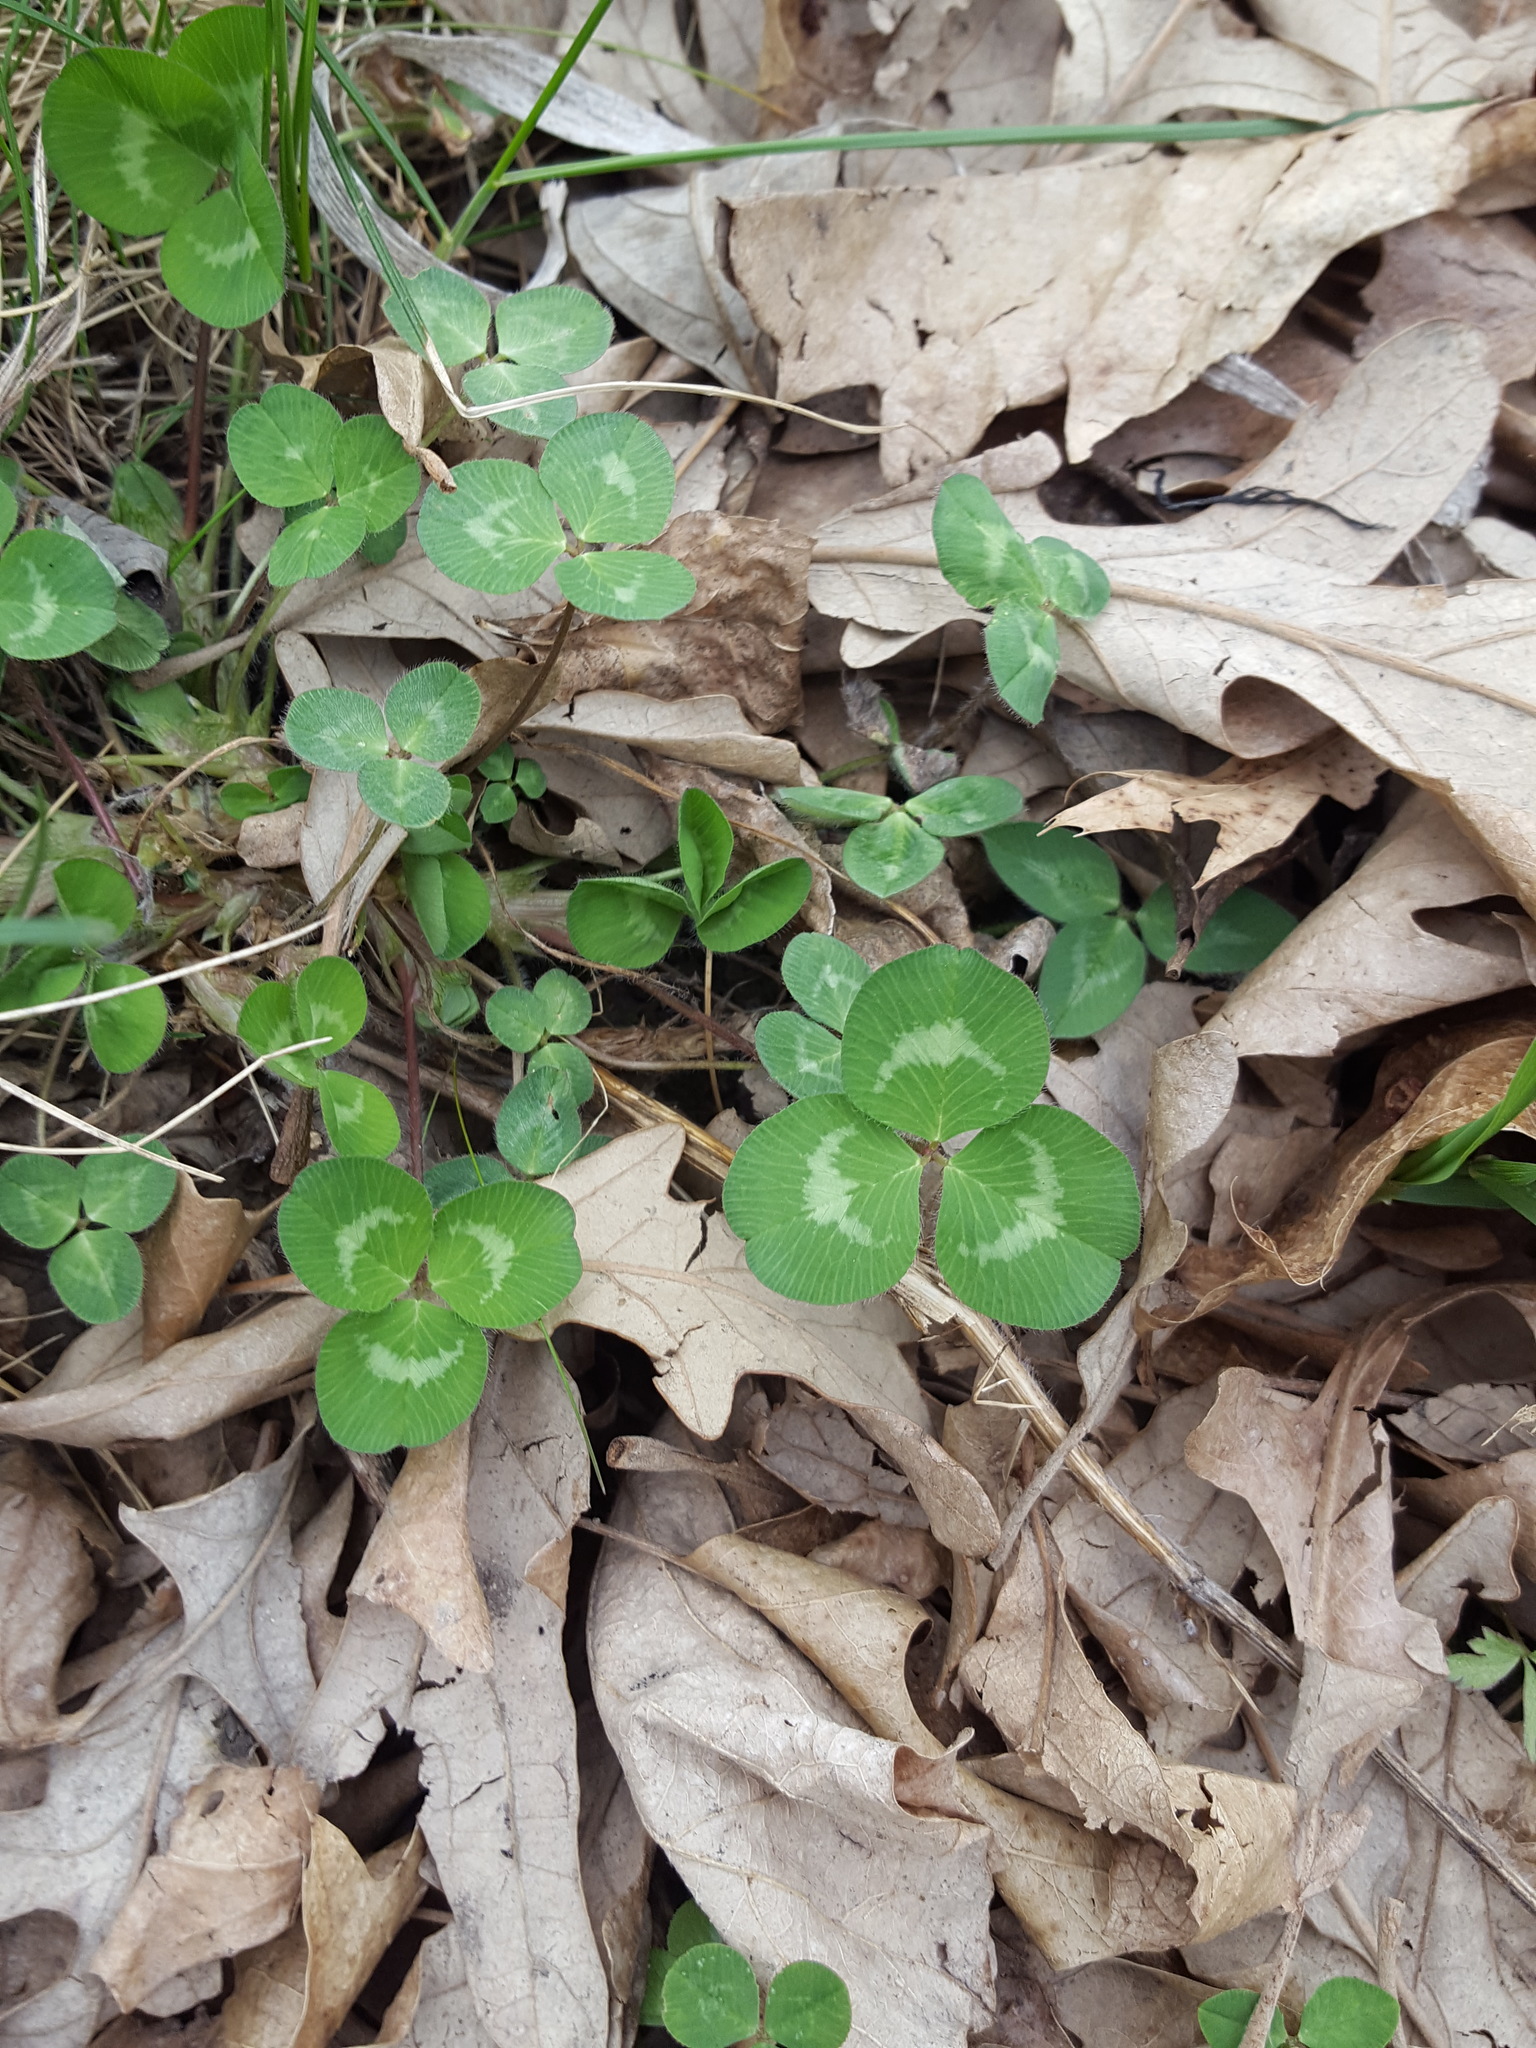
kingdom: Plantae
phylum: Tracheophyta
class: Magnoliopsida
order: Fabales
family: Fabaceae
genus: Trifolium
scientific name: Trifolium repens
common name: White clover
